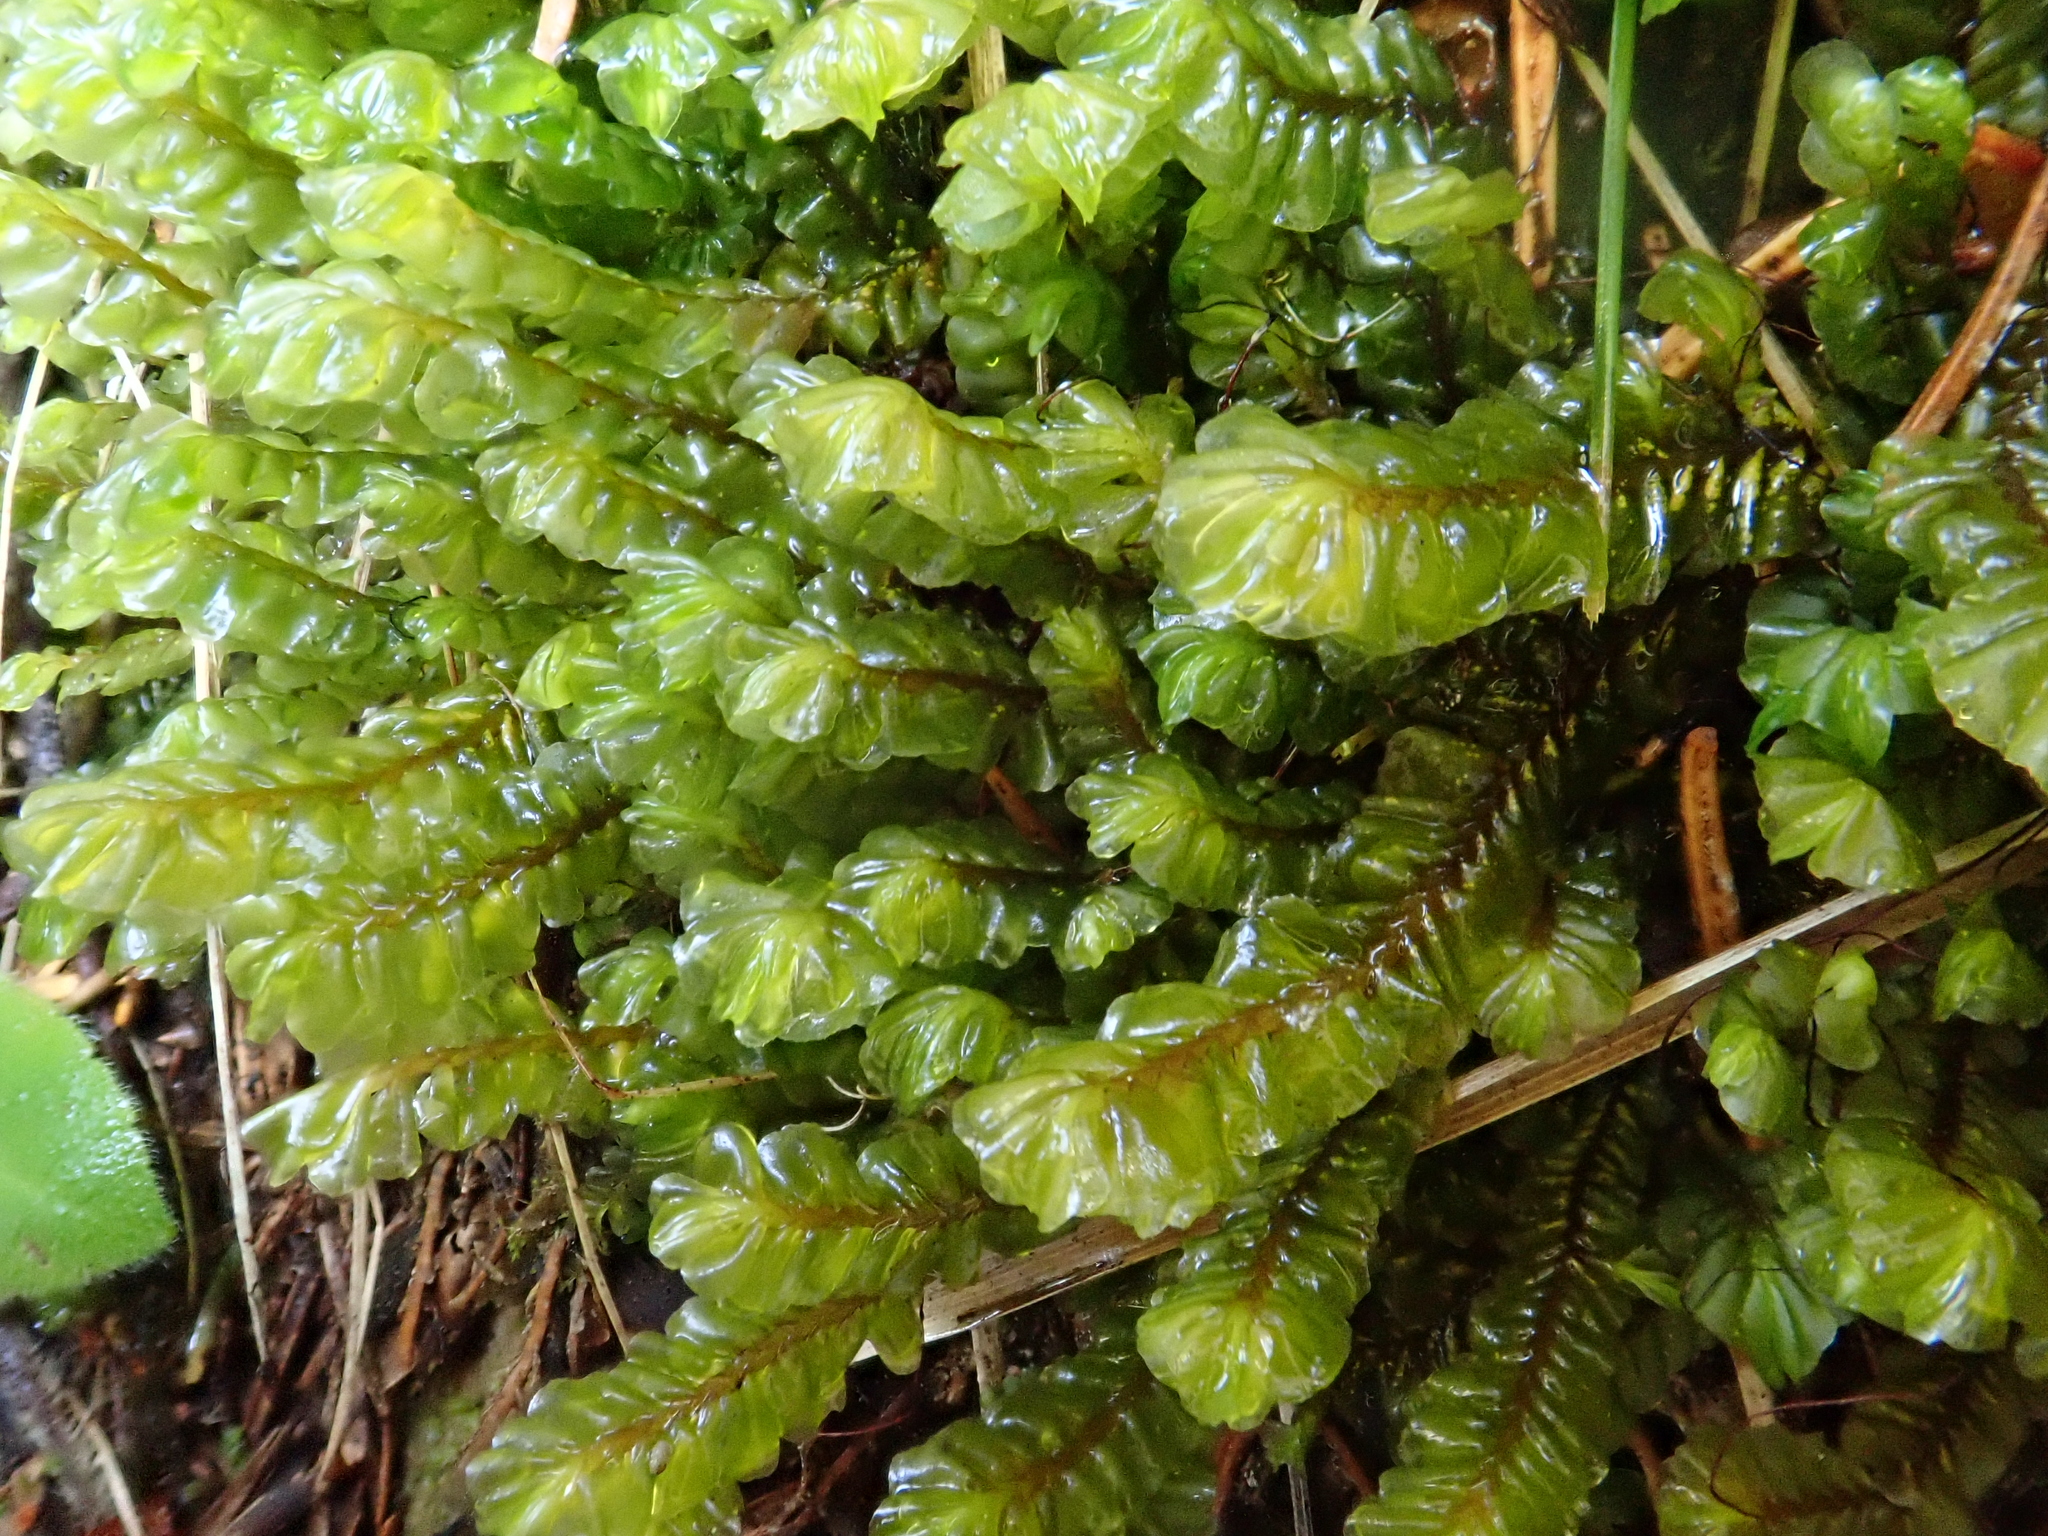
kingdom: Plantae
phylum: Marchantiophyta
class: Jungermanniopsida
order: Jungermanniales
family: Plagiochilaceae
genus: Plagiochila
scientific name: Plagiochila asplenioides
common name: Greater featherwort
